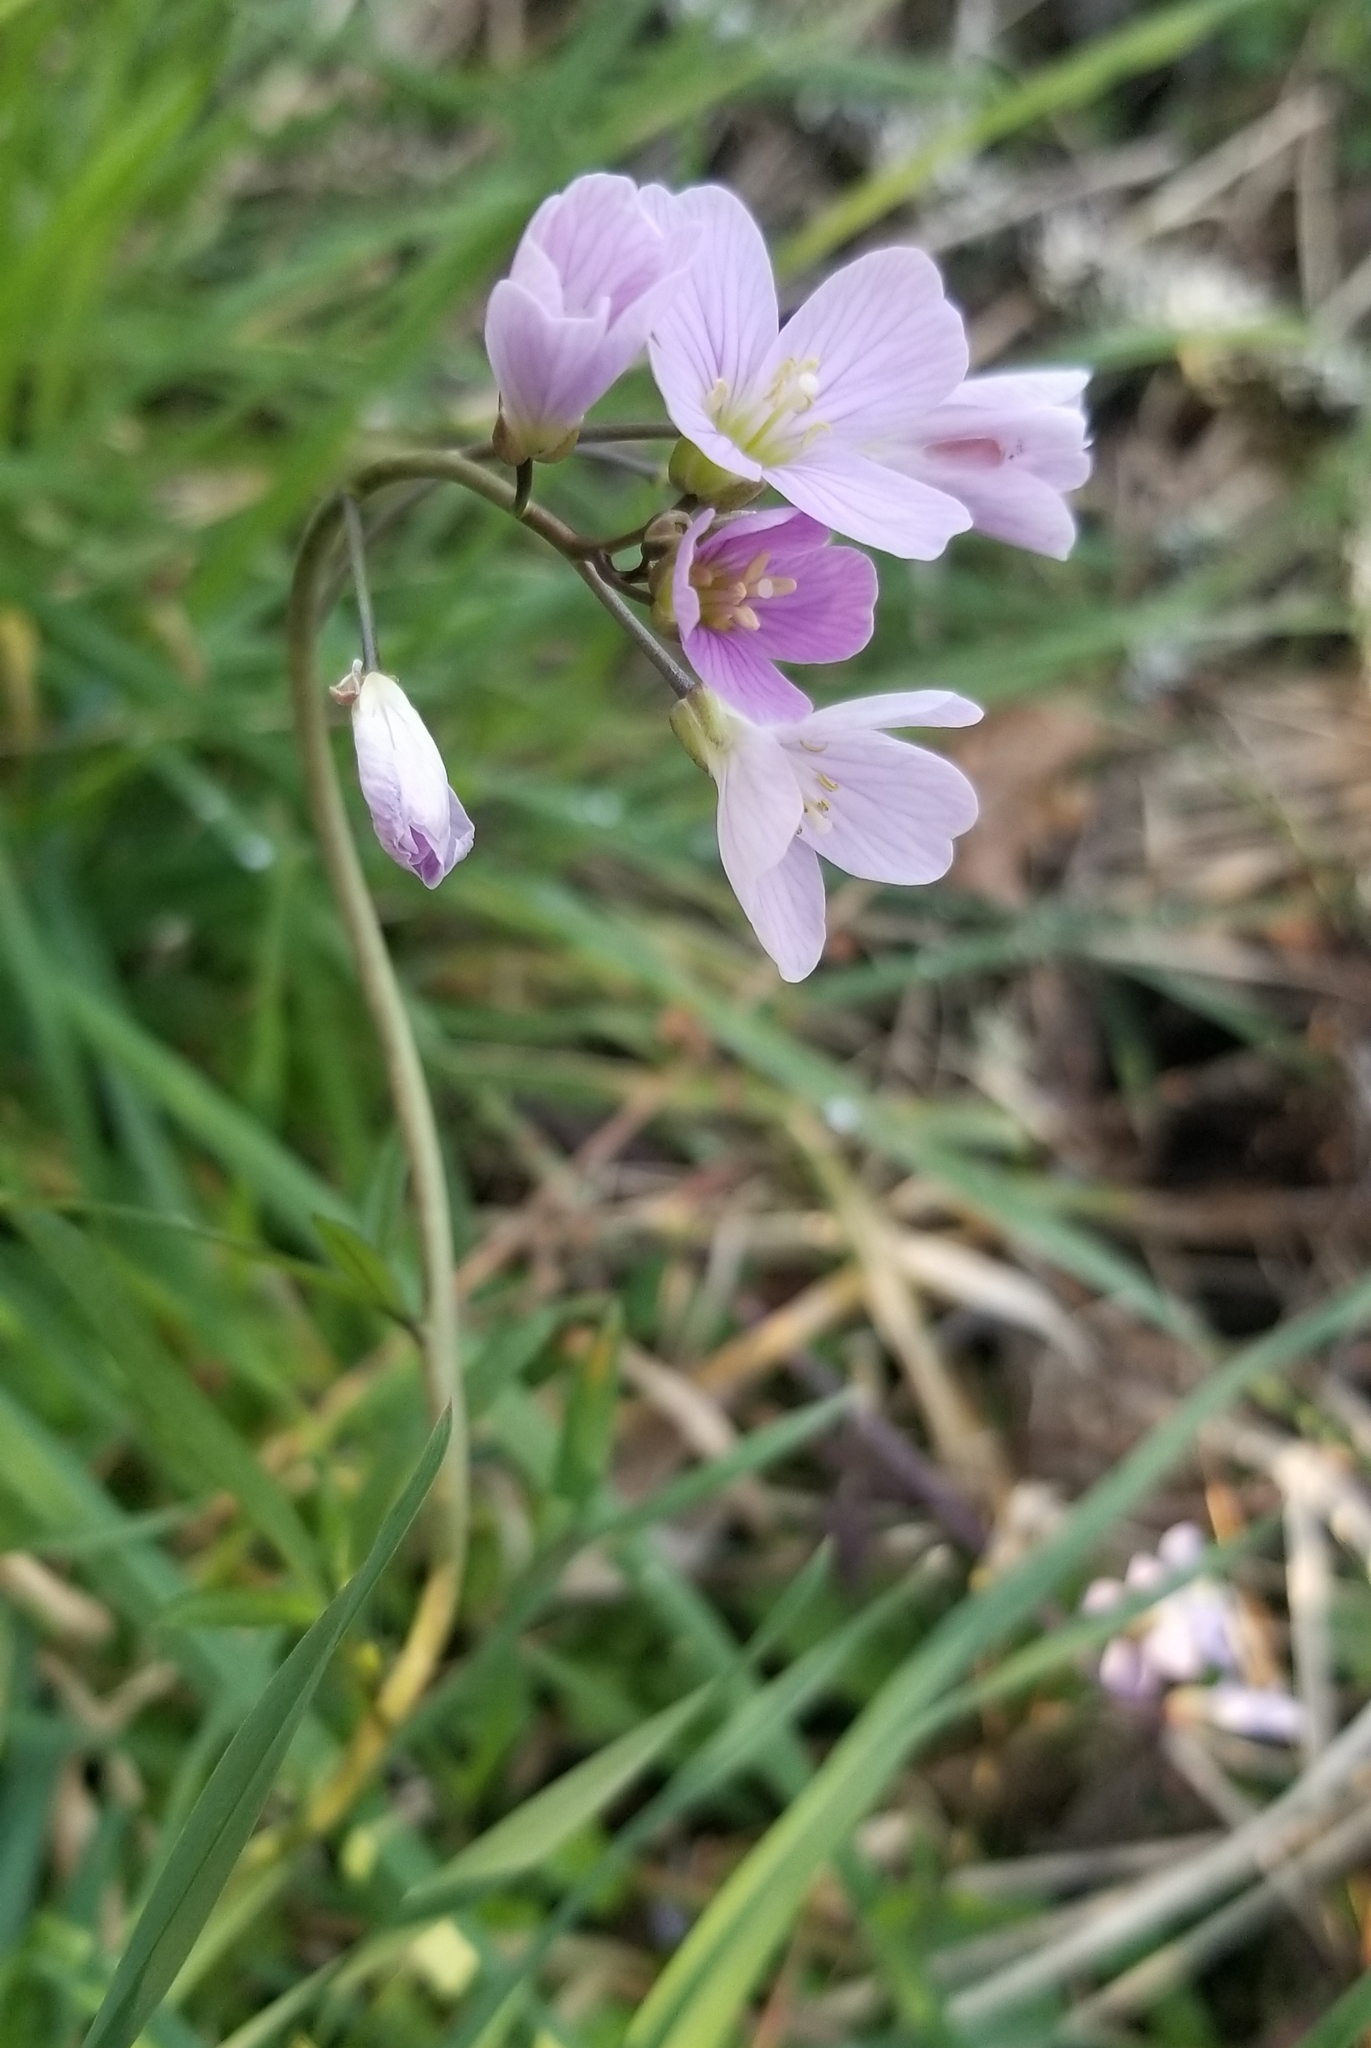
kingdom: Plantae
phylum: Tracheophyta
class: Magnoliopsida
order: Brassicales
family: Brassicaceae
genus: Cardamine
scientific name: Cardamine nuttallii
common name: Nuttall's toothwort
